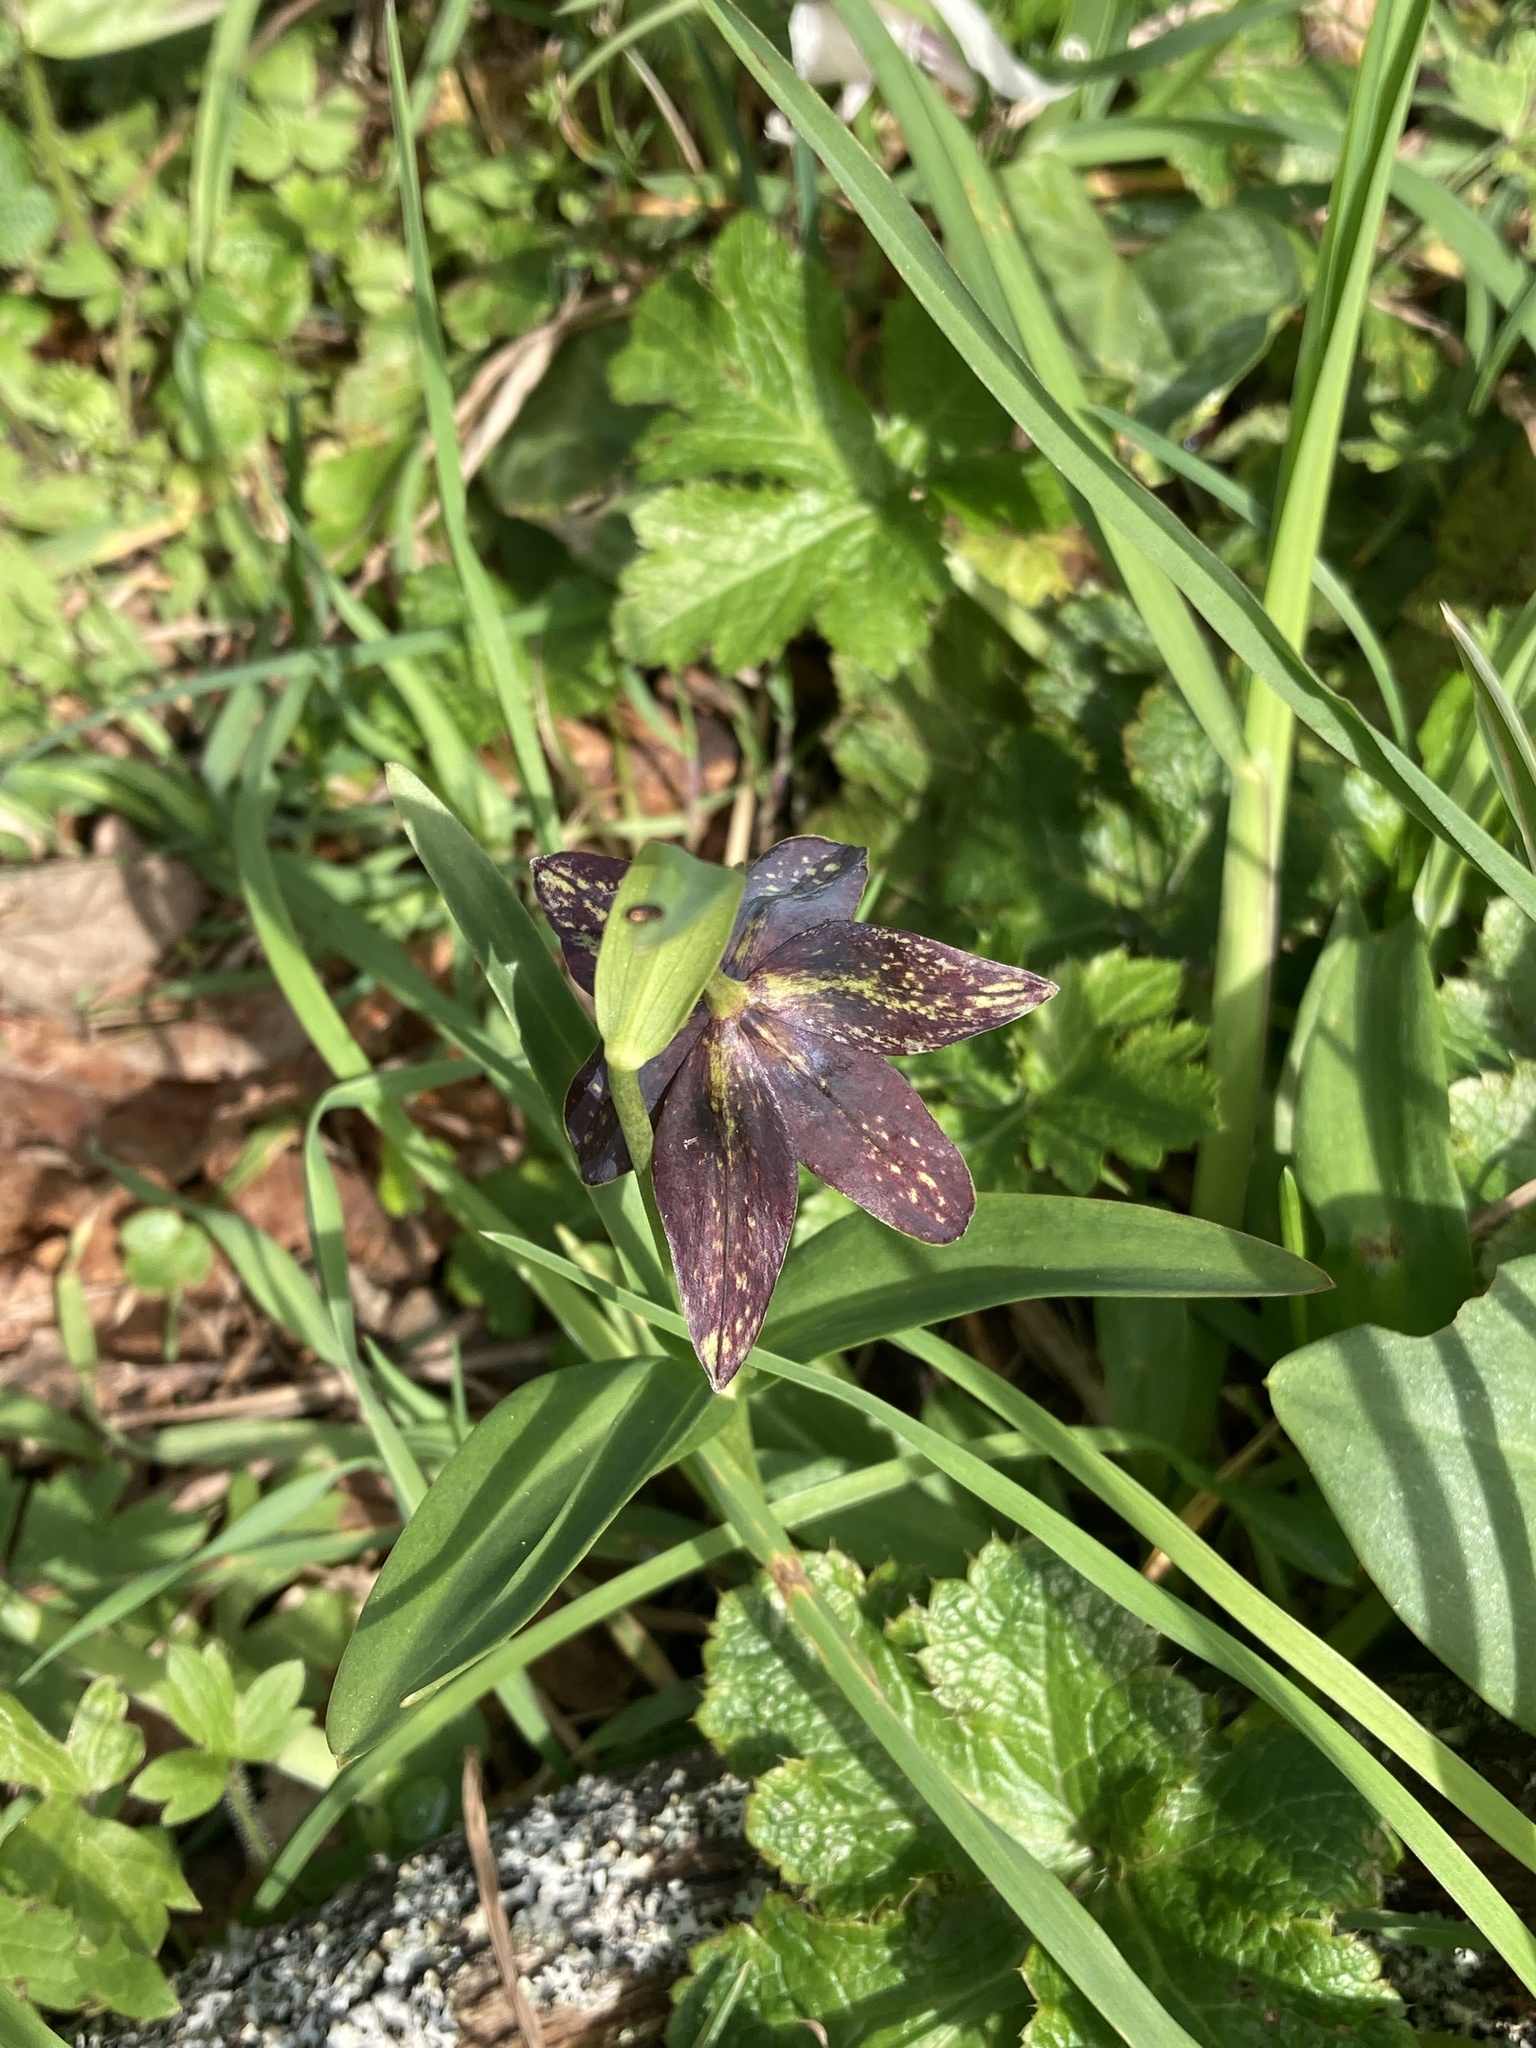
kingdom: Plantae
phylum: Tracheophyta
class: Liliopsida
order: Liliales
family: Liliaceae
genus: Fritillaria
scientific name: Fritillaria affinis
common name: Ojai fritillary
